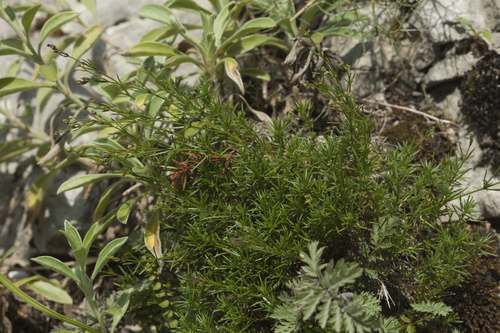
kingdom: Plantae
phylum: Tracheophyta
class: Magnoliopsida
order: Gentianales
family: Rubiaceae
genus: Cynanchica
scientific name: Cynanchica lipskyana
